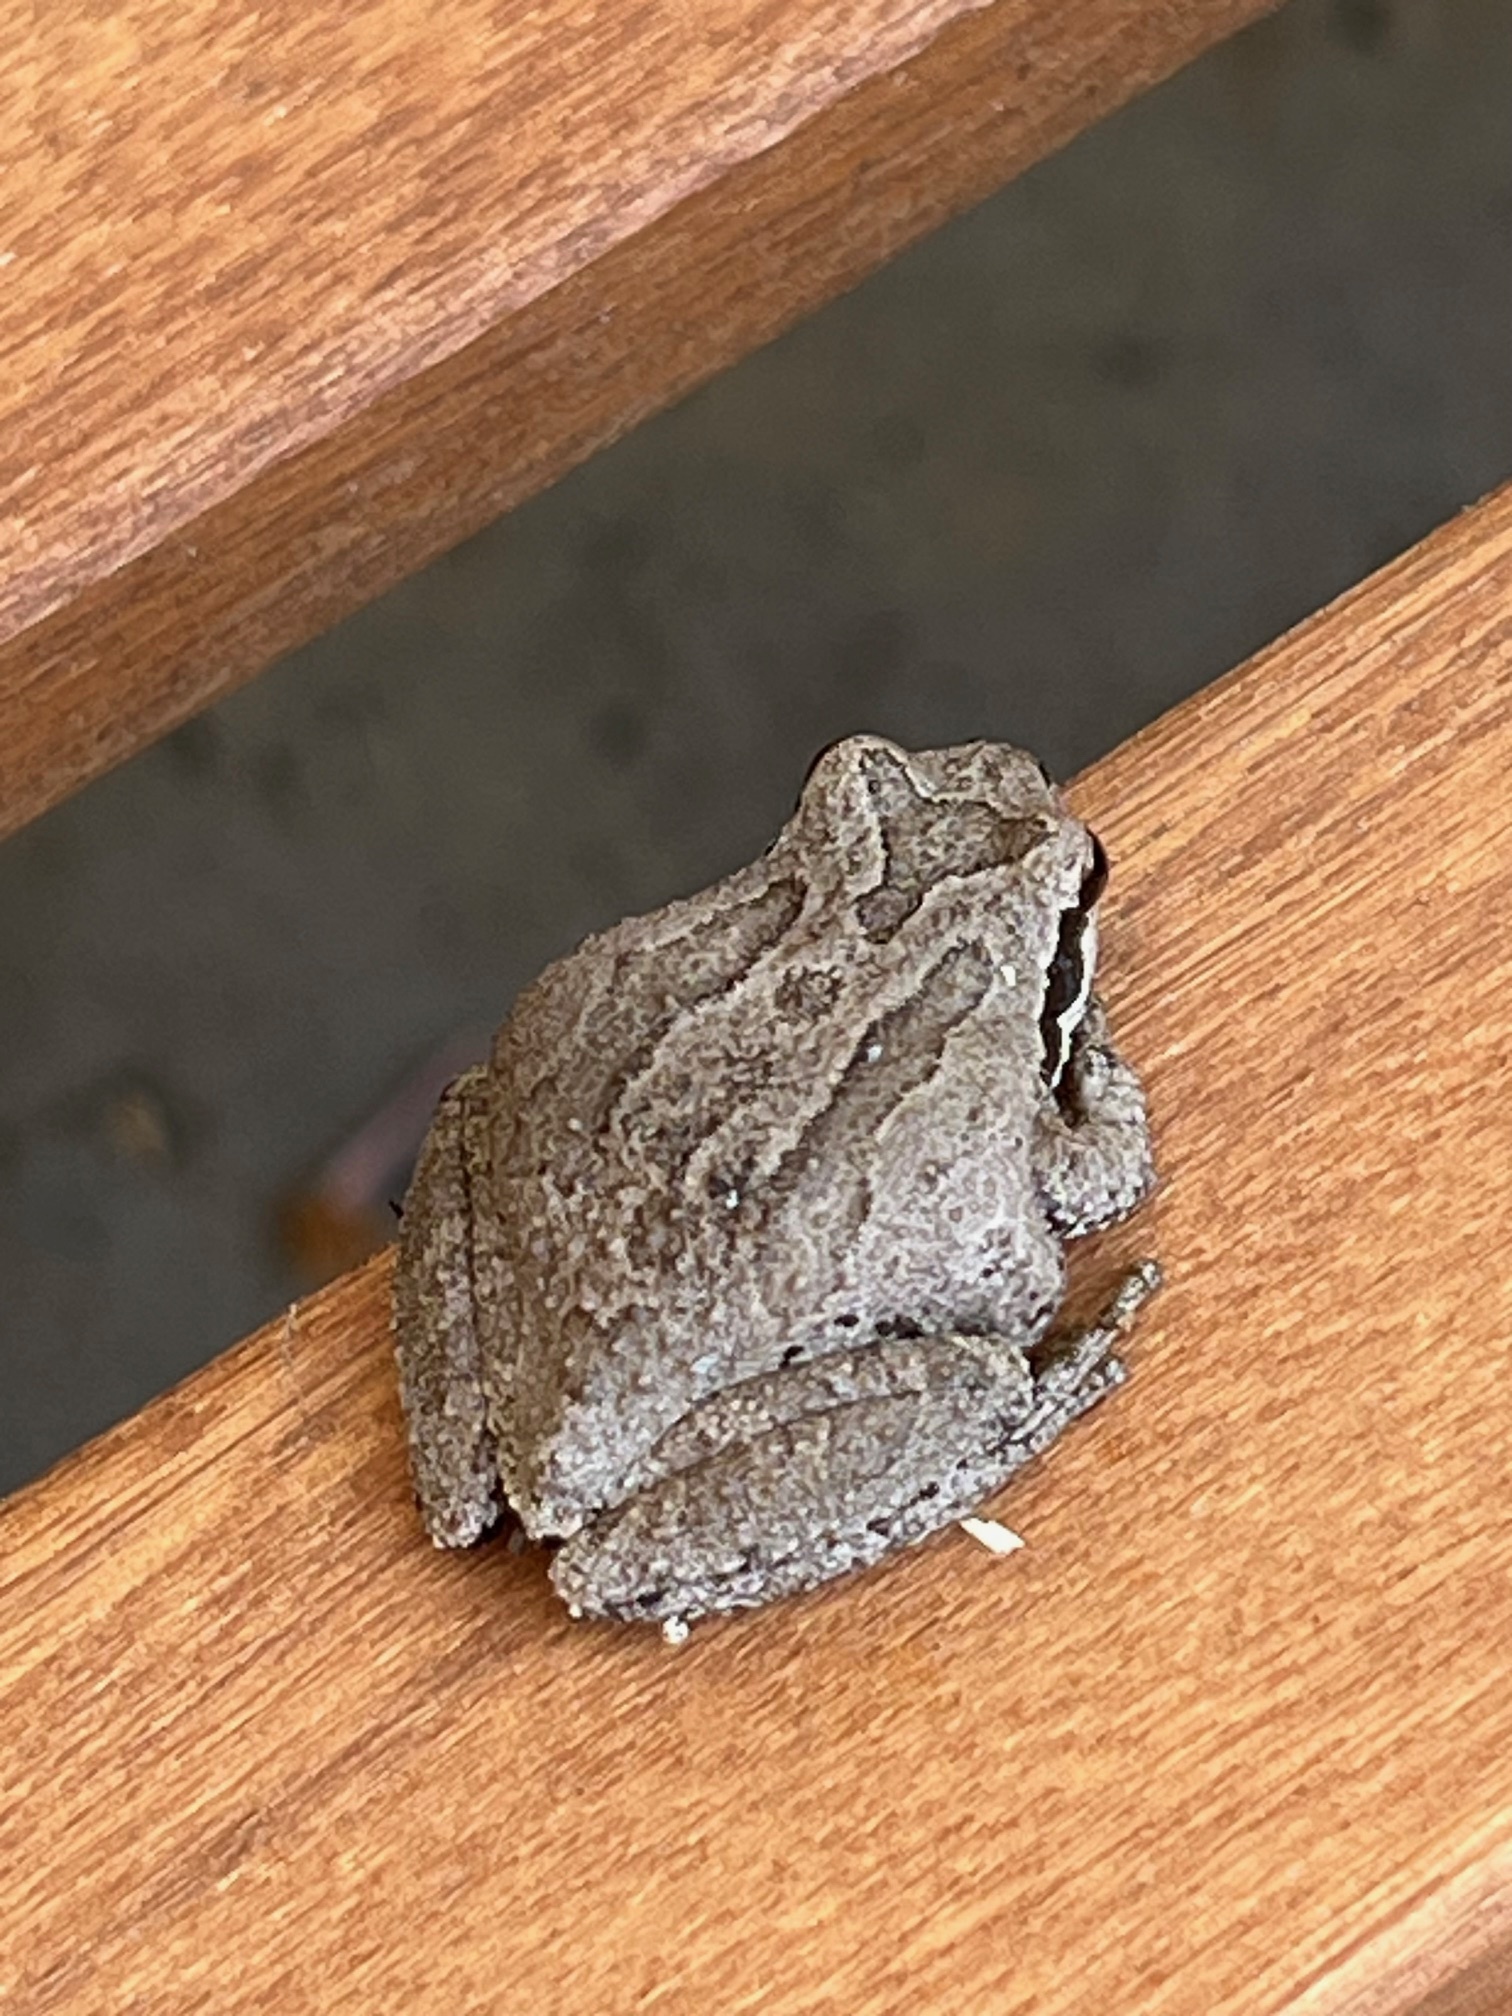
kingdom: Animalia
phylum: Chordata
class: Amphibia
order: Anura
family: Hylidae
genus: Pseudacris
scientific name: Pseudacris regilla
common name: Pacific chorus frog
